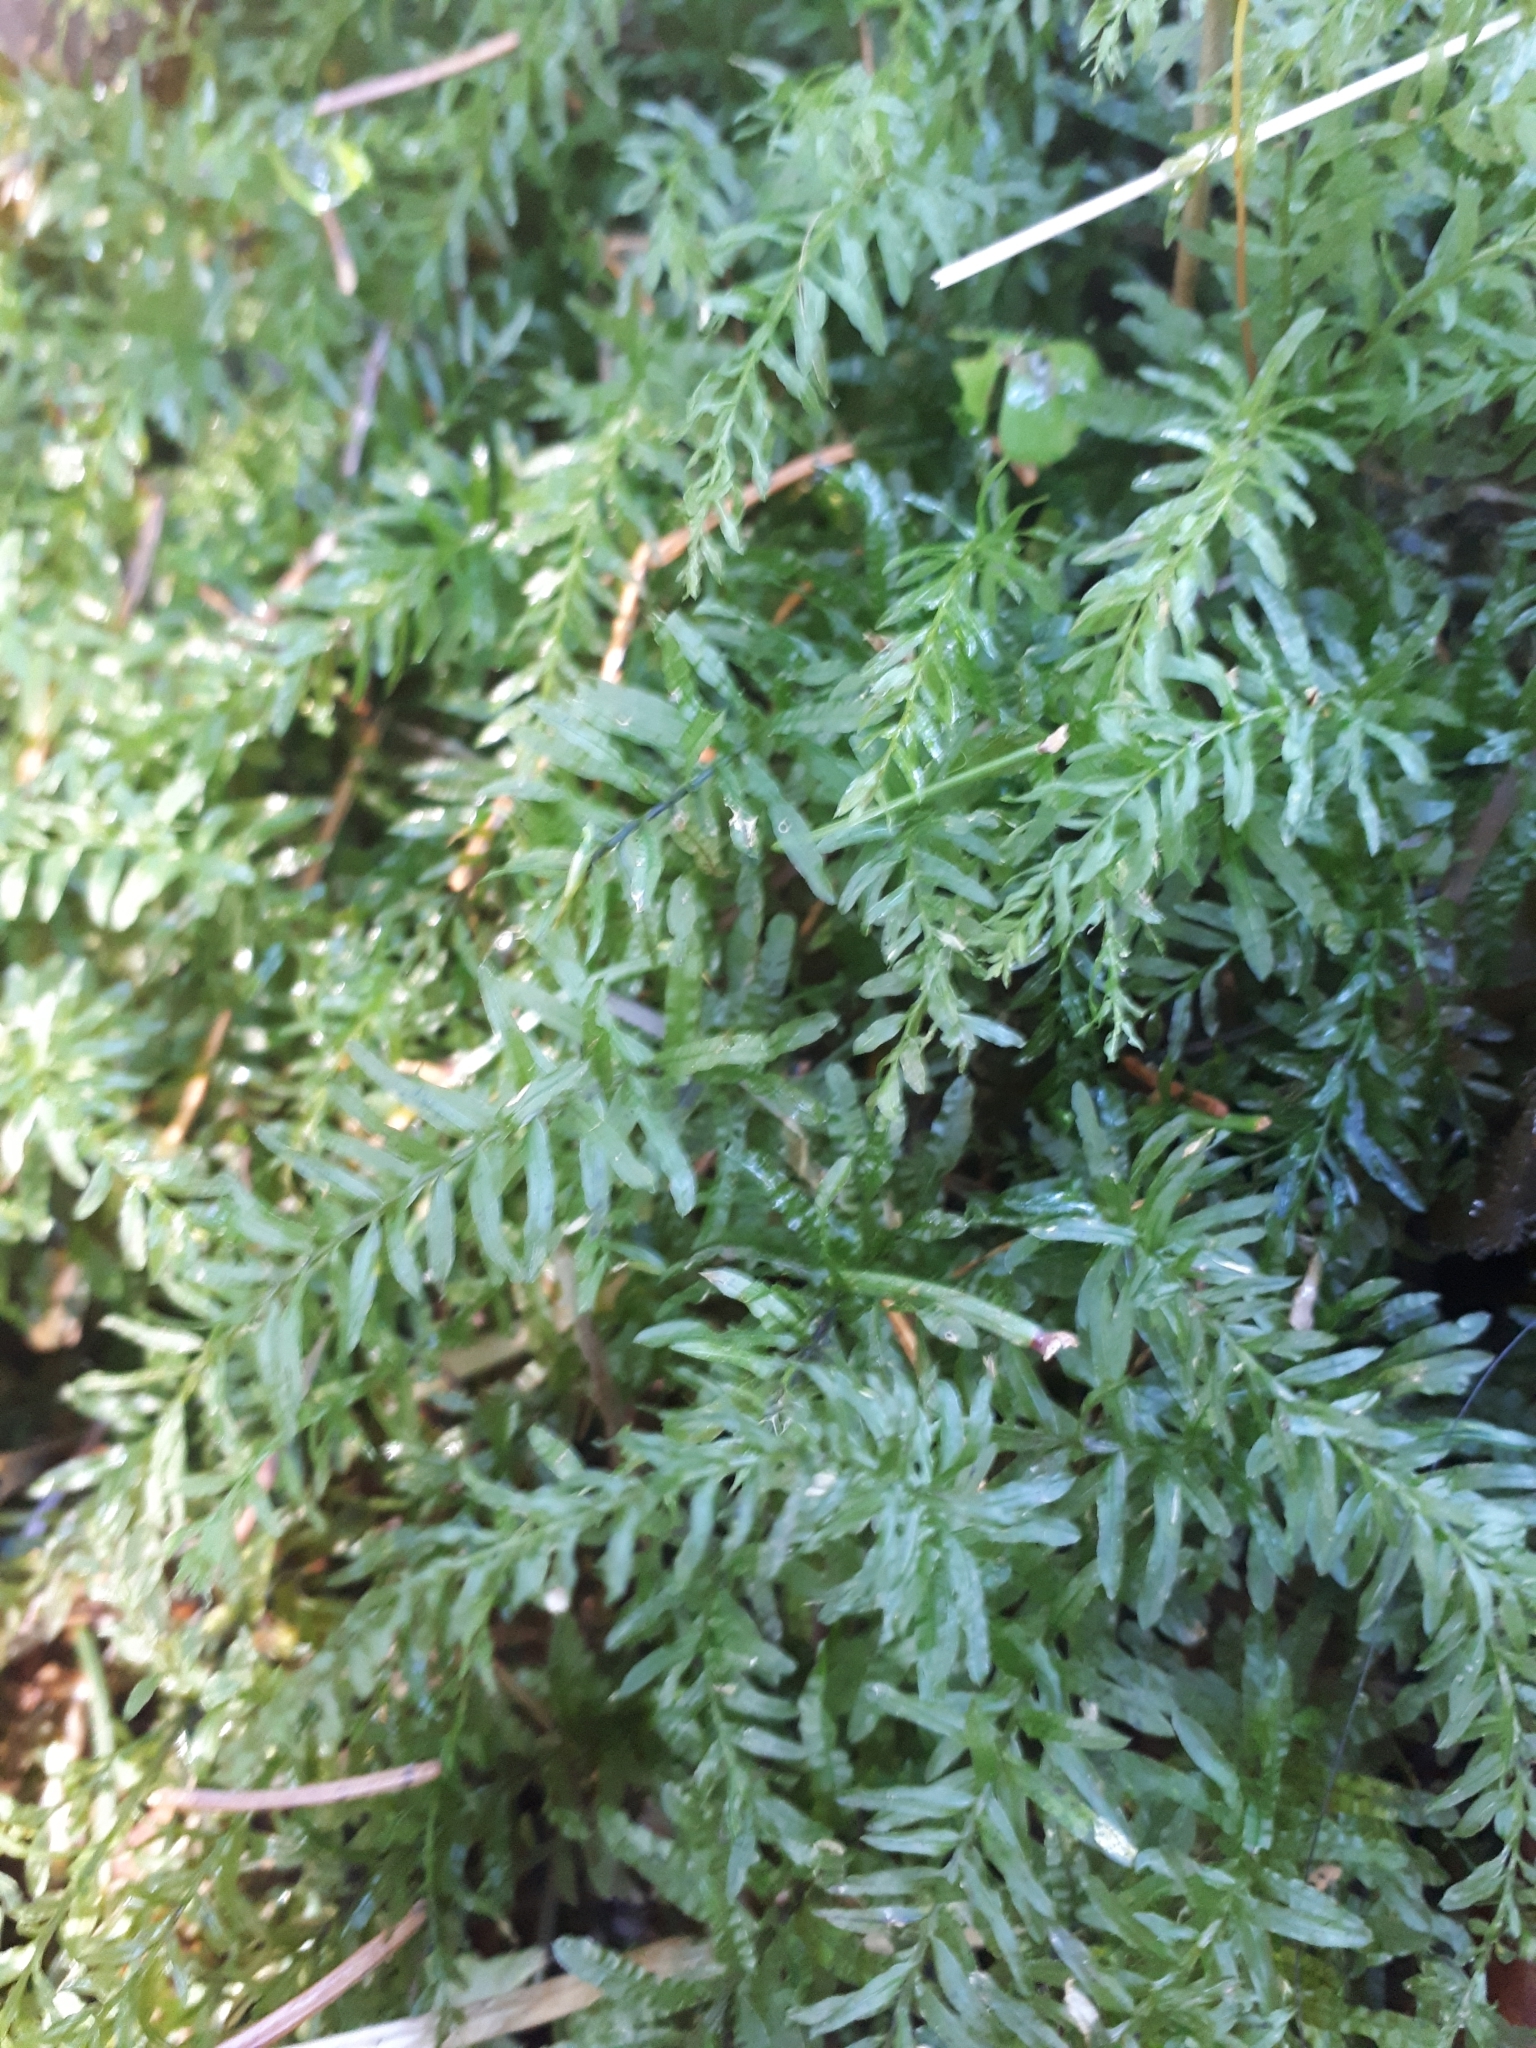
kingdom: Plantae
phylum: Bryophyta
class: Bryopsida
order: Bryales
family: Mniaceae
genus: Plagiomnium
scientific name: Plagiomnium undulatum
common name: Hart's-tongue thyme-moss
